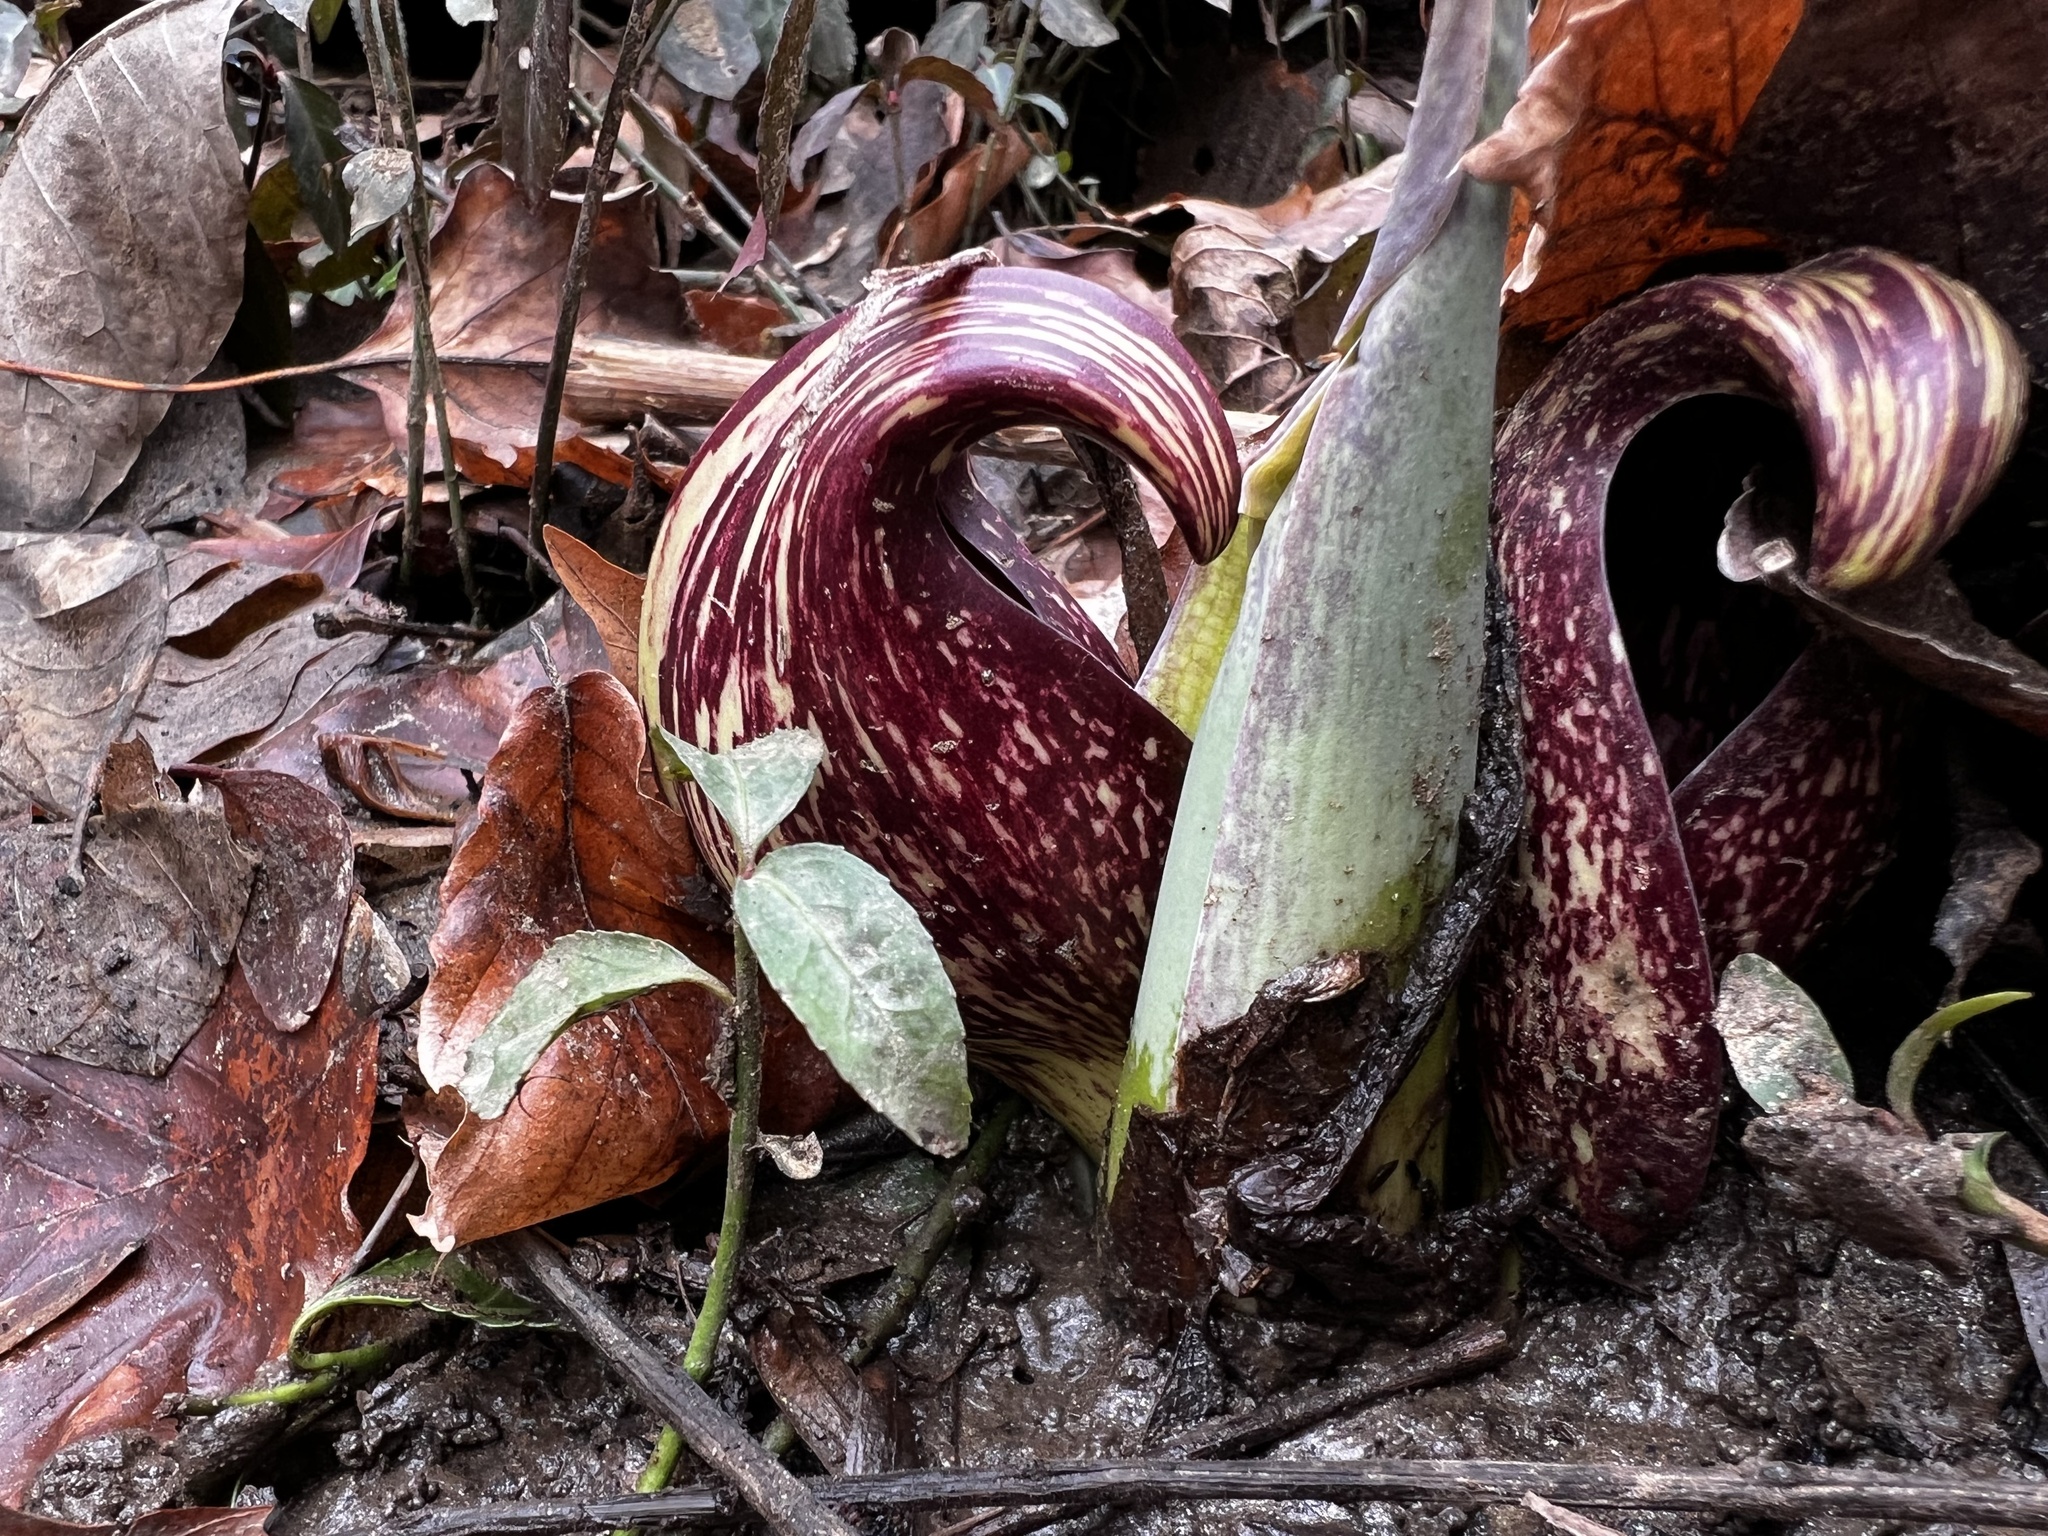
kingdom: Plantae
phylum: Tracheophyta
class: Liliopsida
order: Alismatales
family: Araceae
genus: Symplocarpus
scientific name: Symplocarpus foetidus
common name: Eastern skunk cabbage
